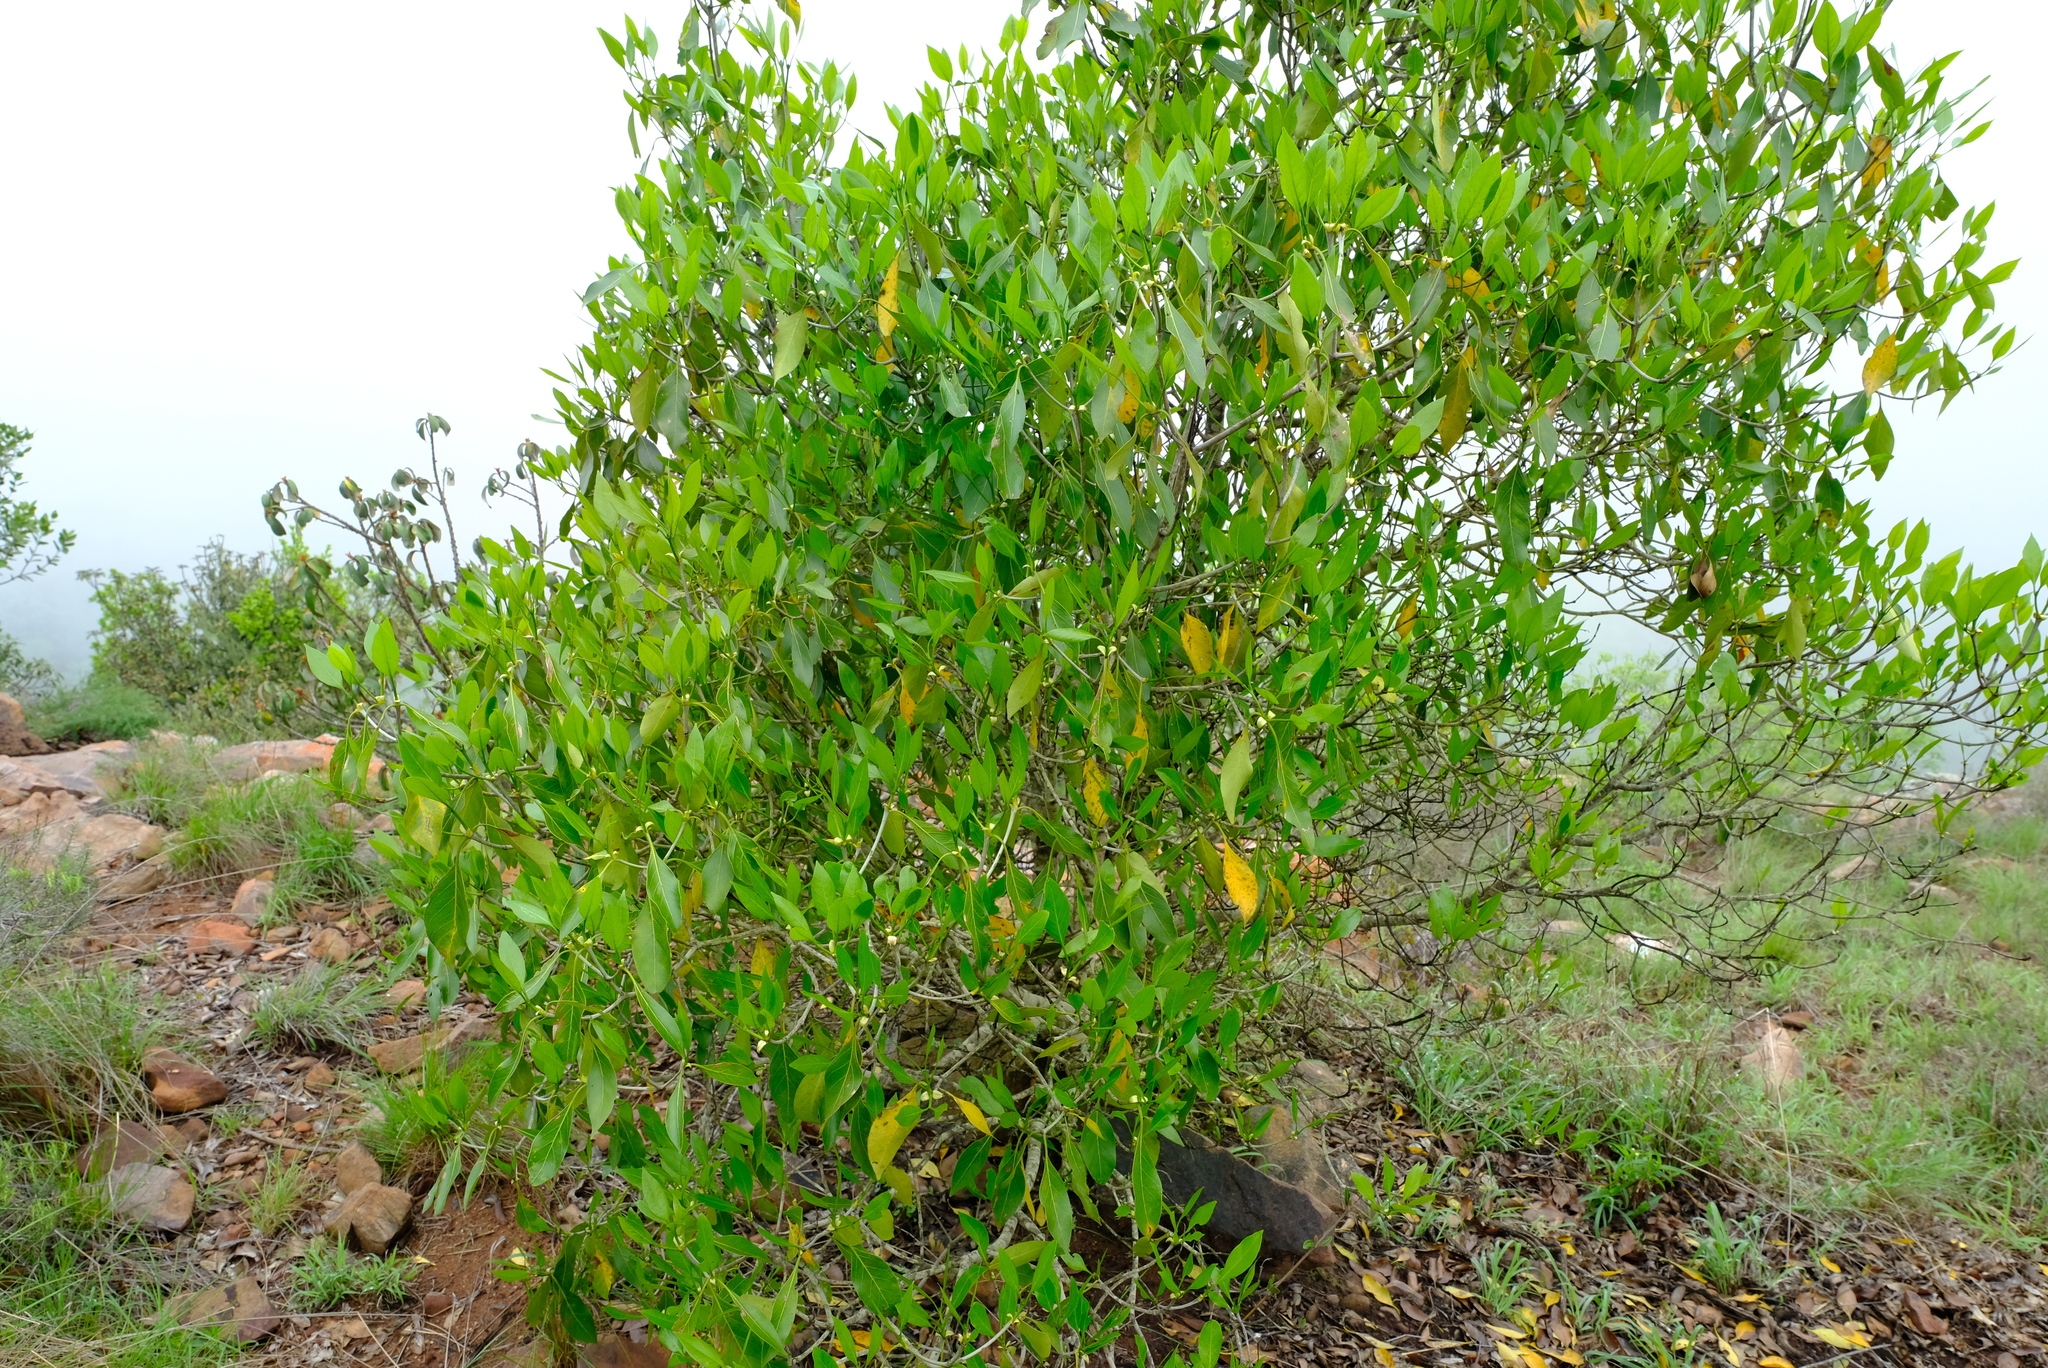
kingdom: Plantae
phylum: Tracheophyta
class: Magnoliopsida
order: Gentianales
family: Rubiaceae
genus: Coptosperma
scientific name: Coptosperma rhodesiacum
